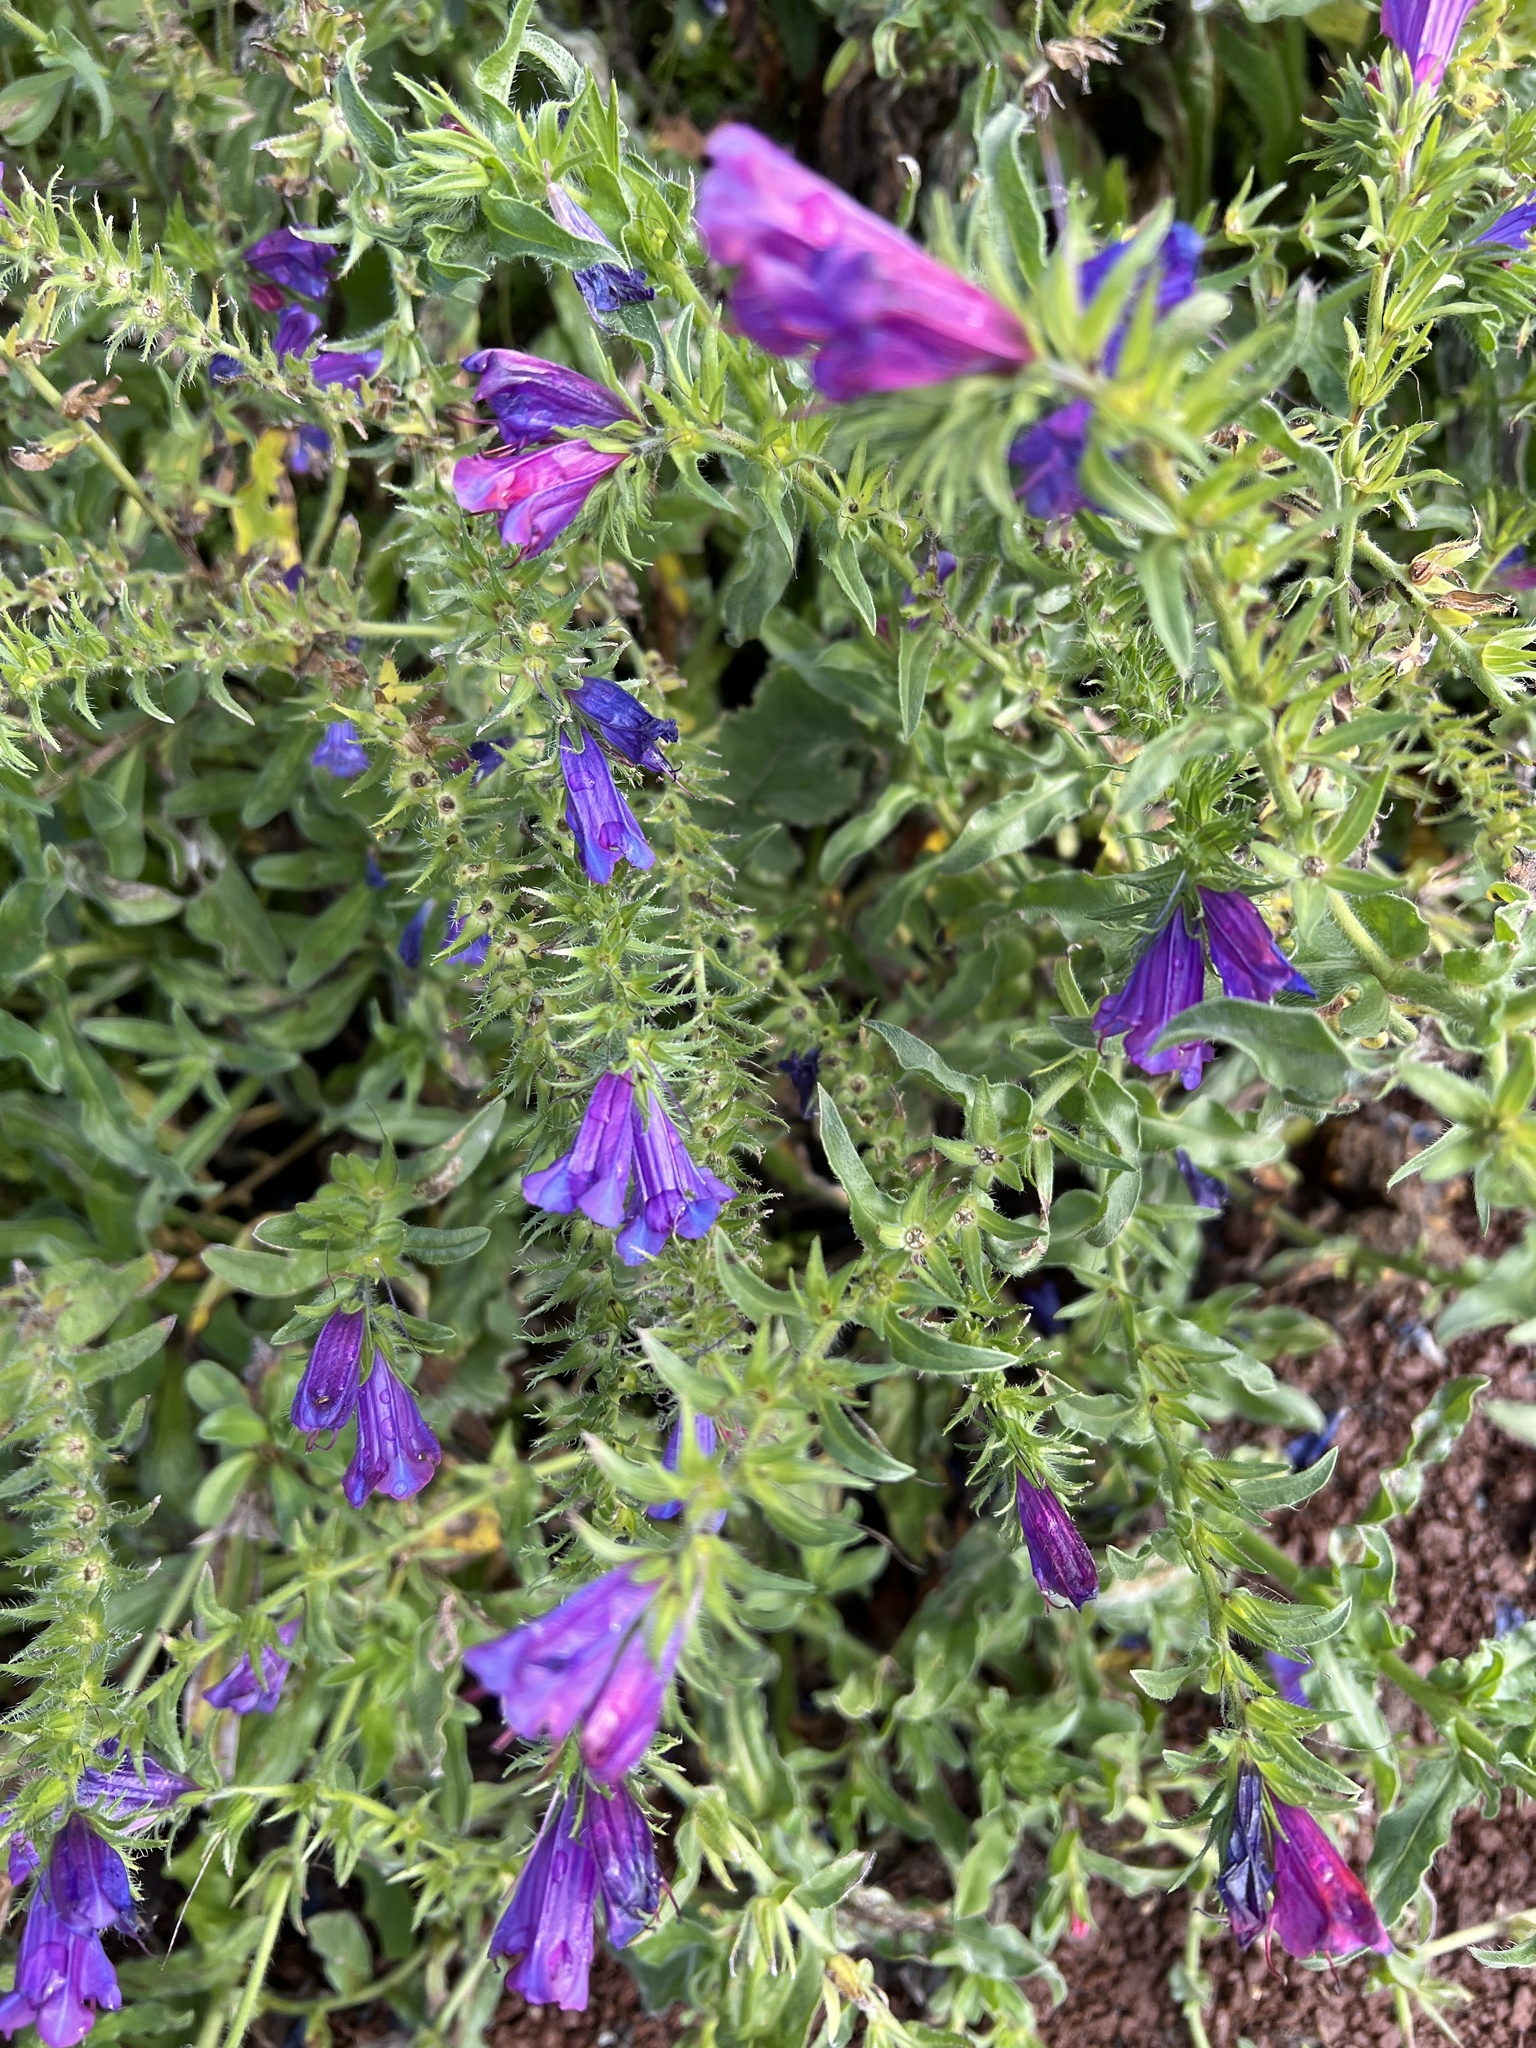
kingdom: Plantae
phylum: Tracheophyta
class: Magnoliopsida
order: Boraginales
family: Boraginaceae
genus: Echium
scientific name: Echium plantagineum
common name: Purple viper's-bugloss
